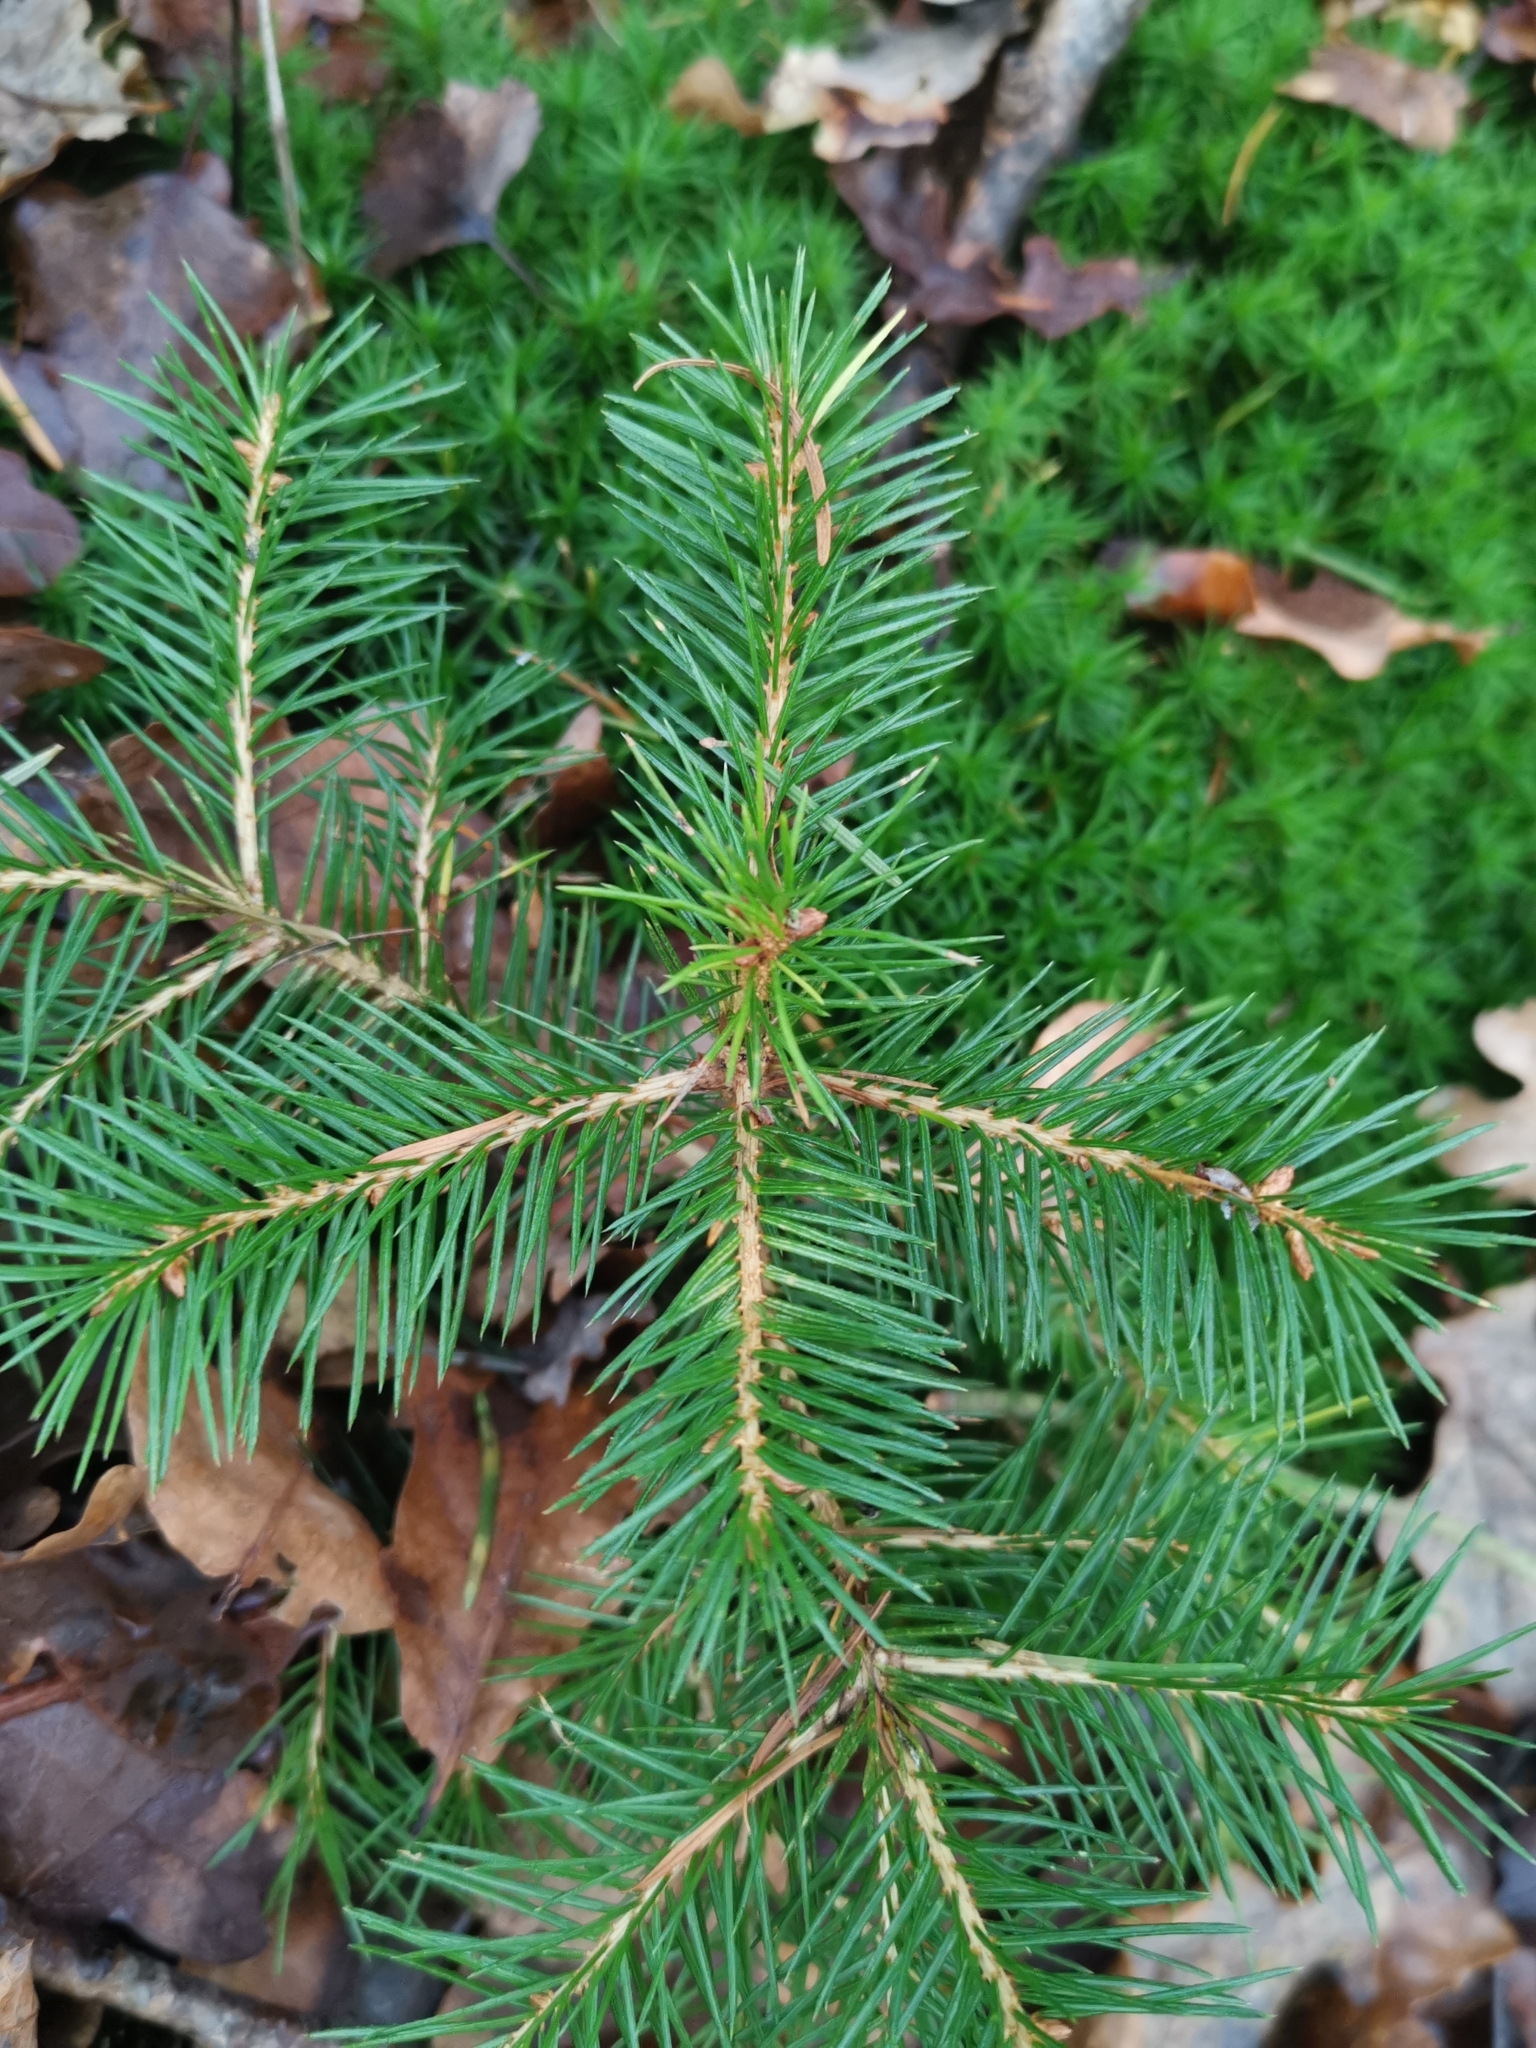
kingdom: Plantae
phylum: Tracheophyta
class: Pinopsida
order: Pinales
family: Pinaceae
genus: Picea
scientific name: Picea abies
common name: Norway spruce
